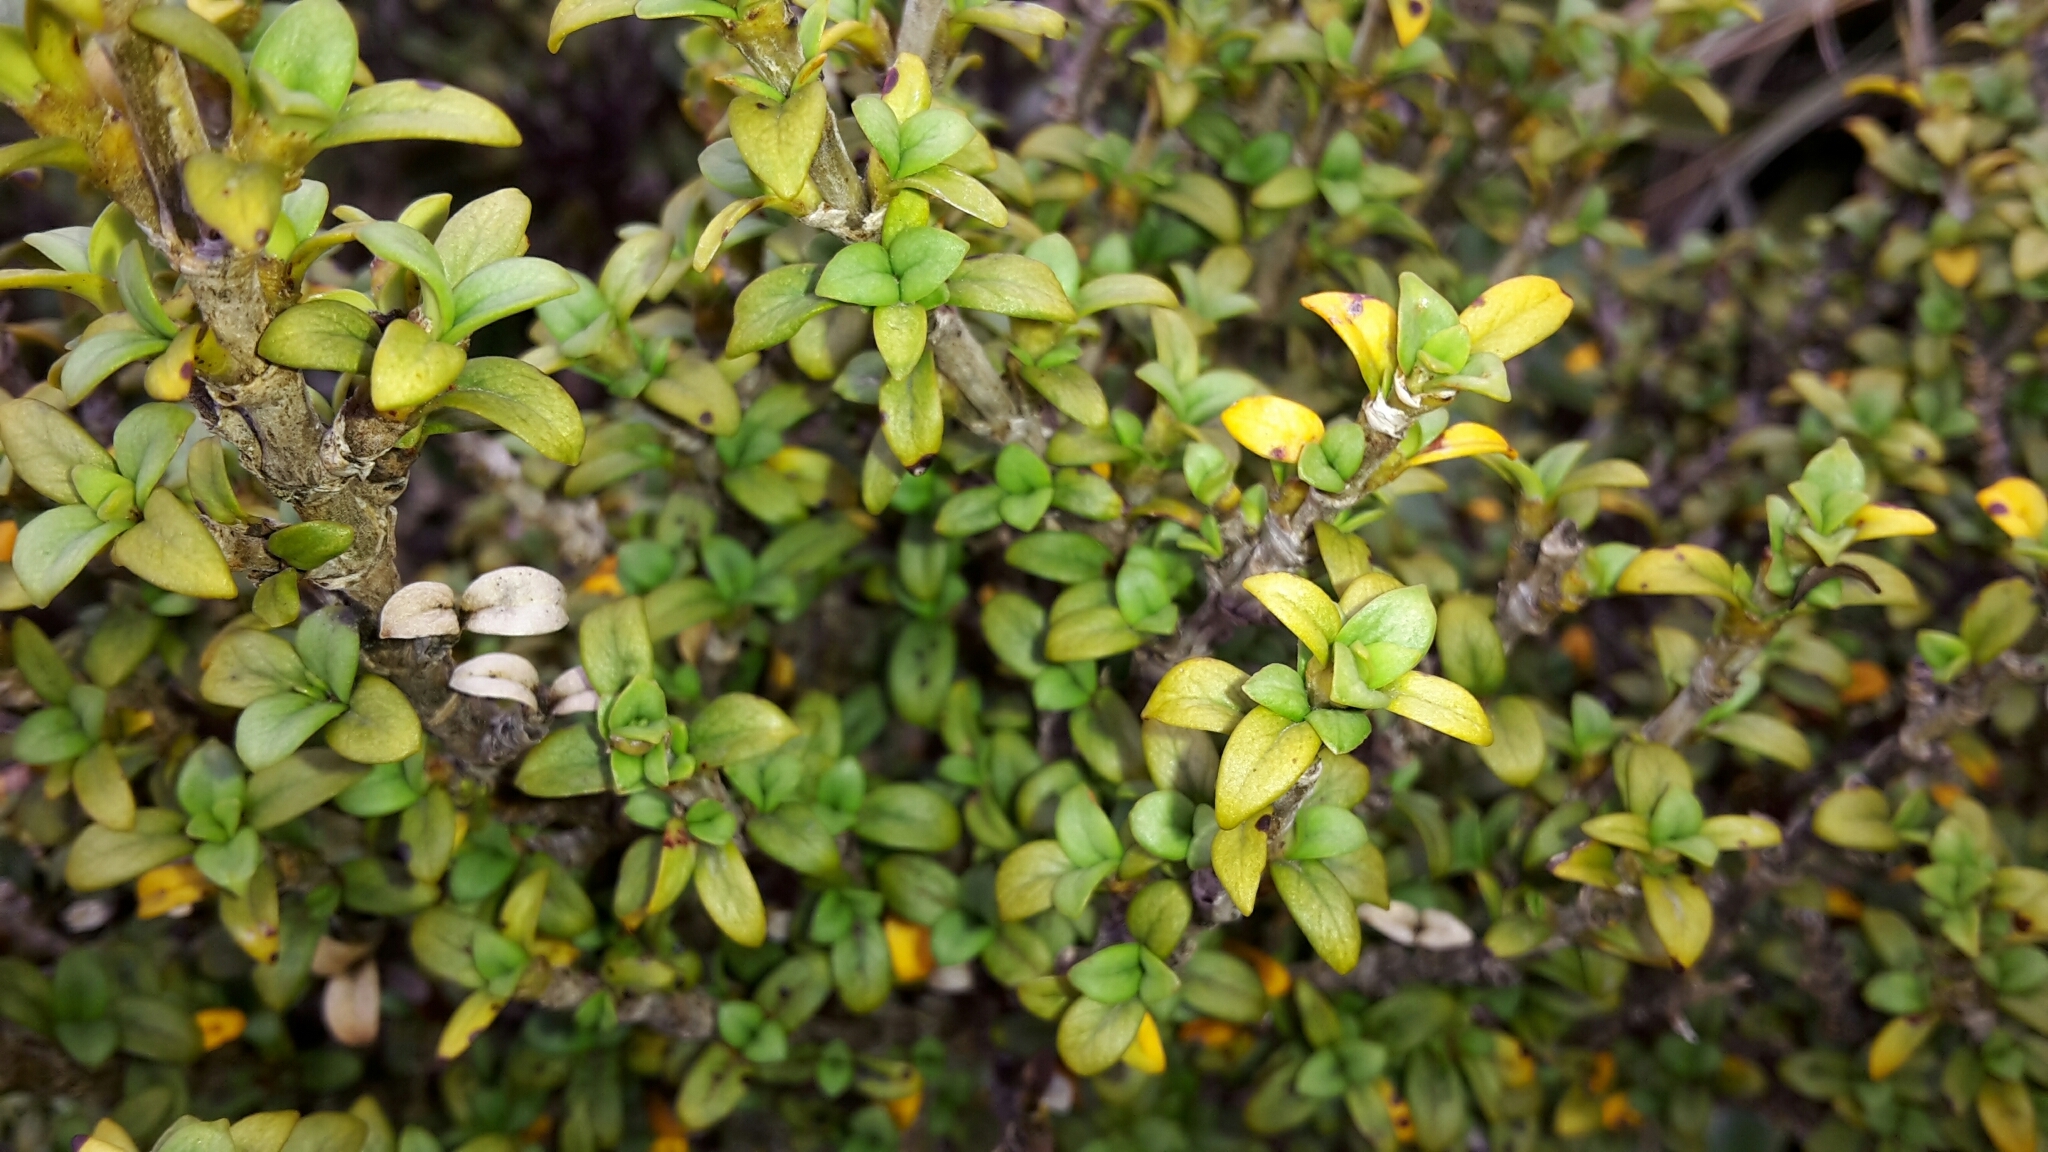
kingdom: Plantae
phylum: Tracheophyta
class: Magnoliopsida
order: Gentianales
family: Rubiaceae
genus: Coprosma
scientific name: Coprosma pseudocuneata
